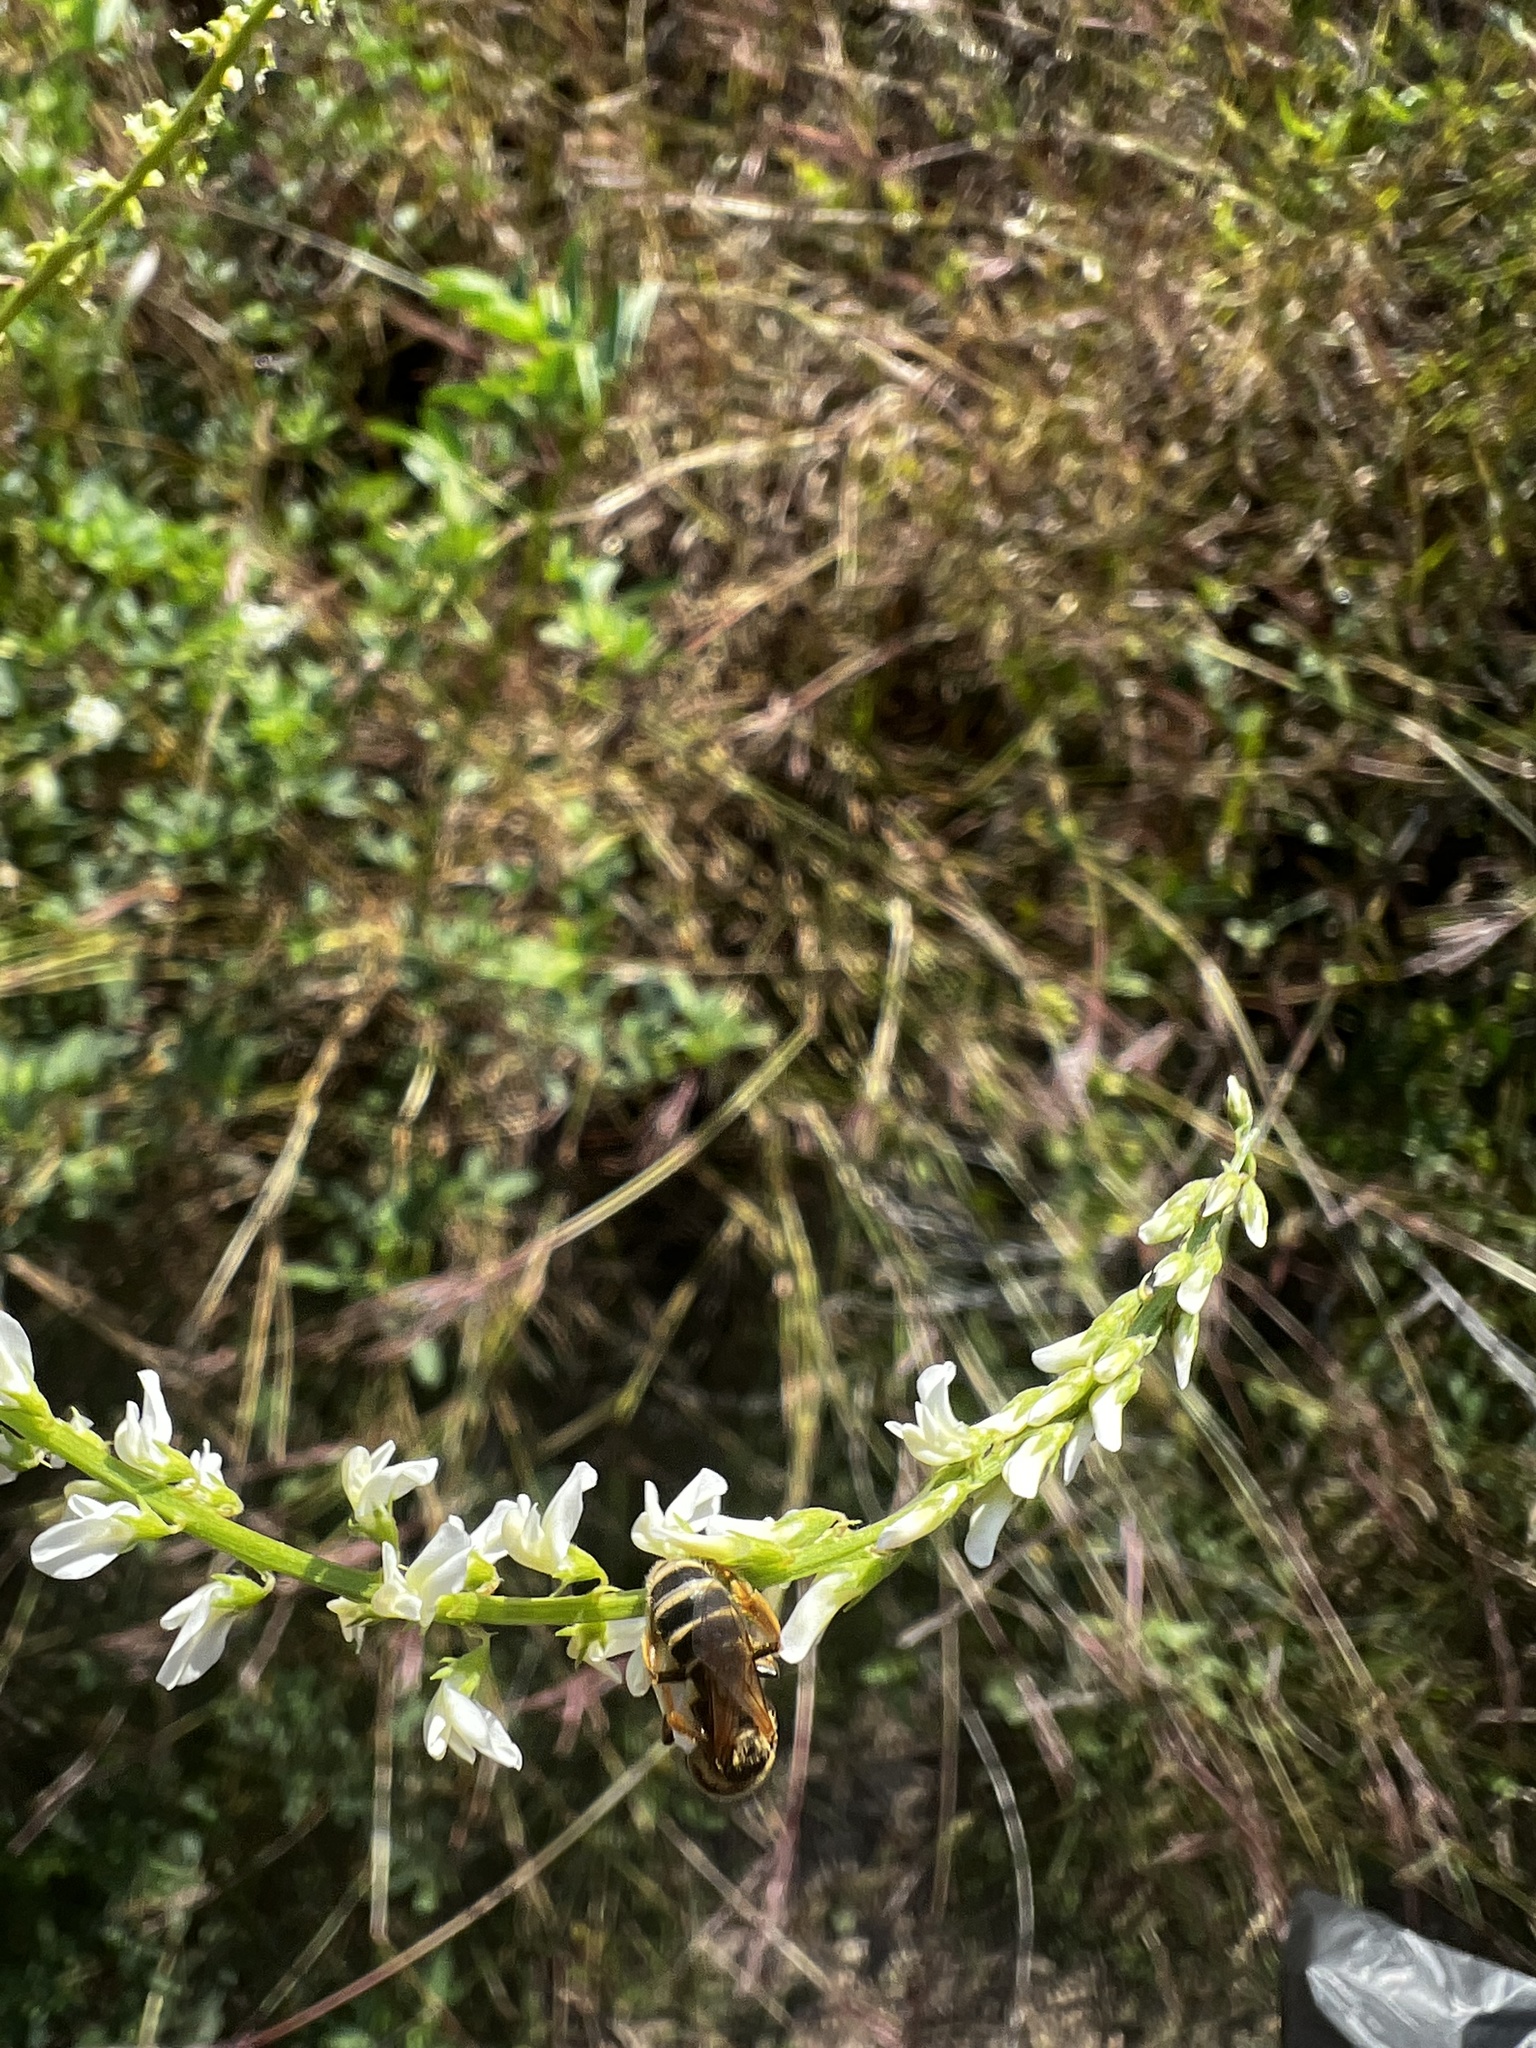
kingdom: Plantae
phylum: Tracheophyta
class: Magnoliopsida
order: Fabales
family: Fabaceae
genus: Melilotus
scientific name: Melilotus albus
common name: White melilot
